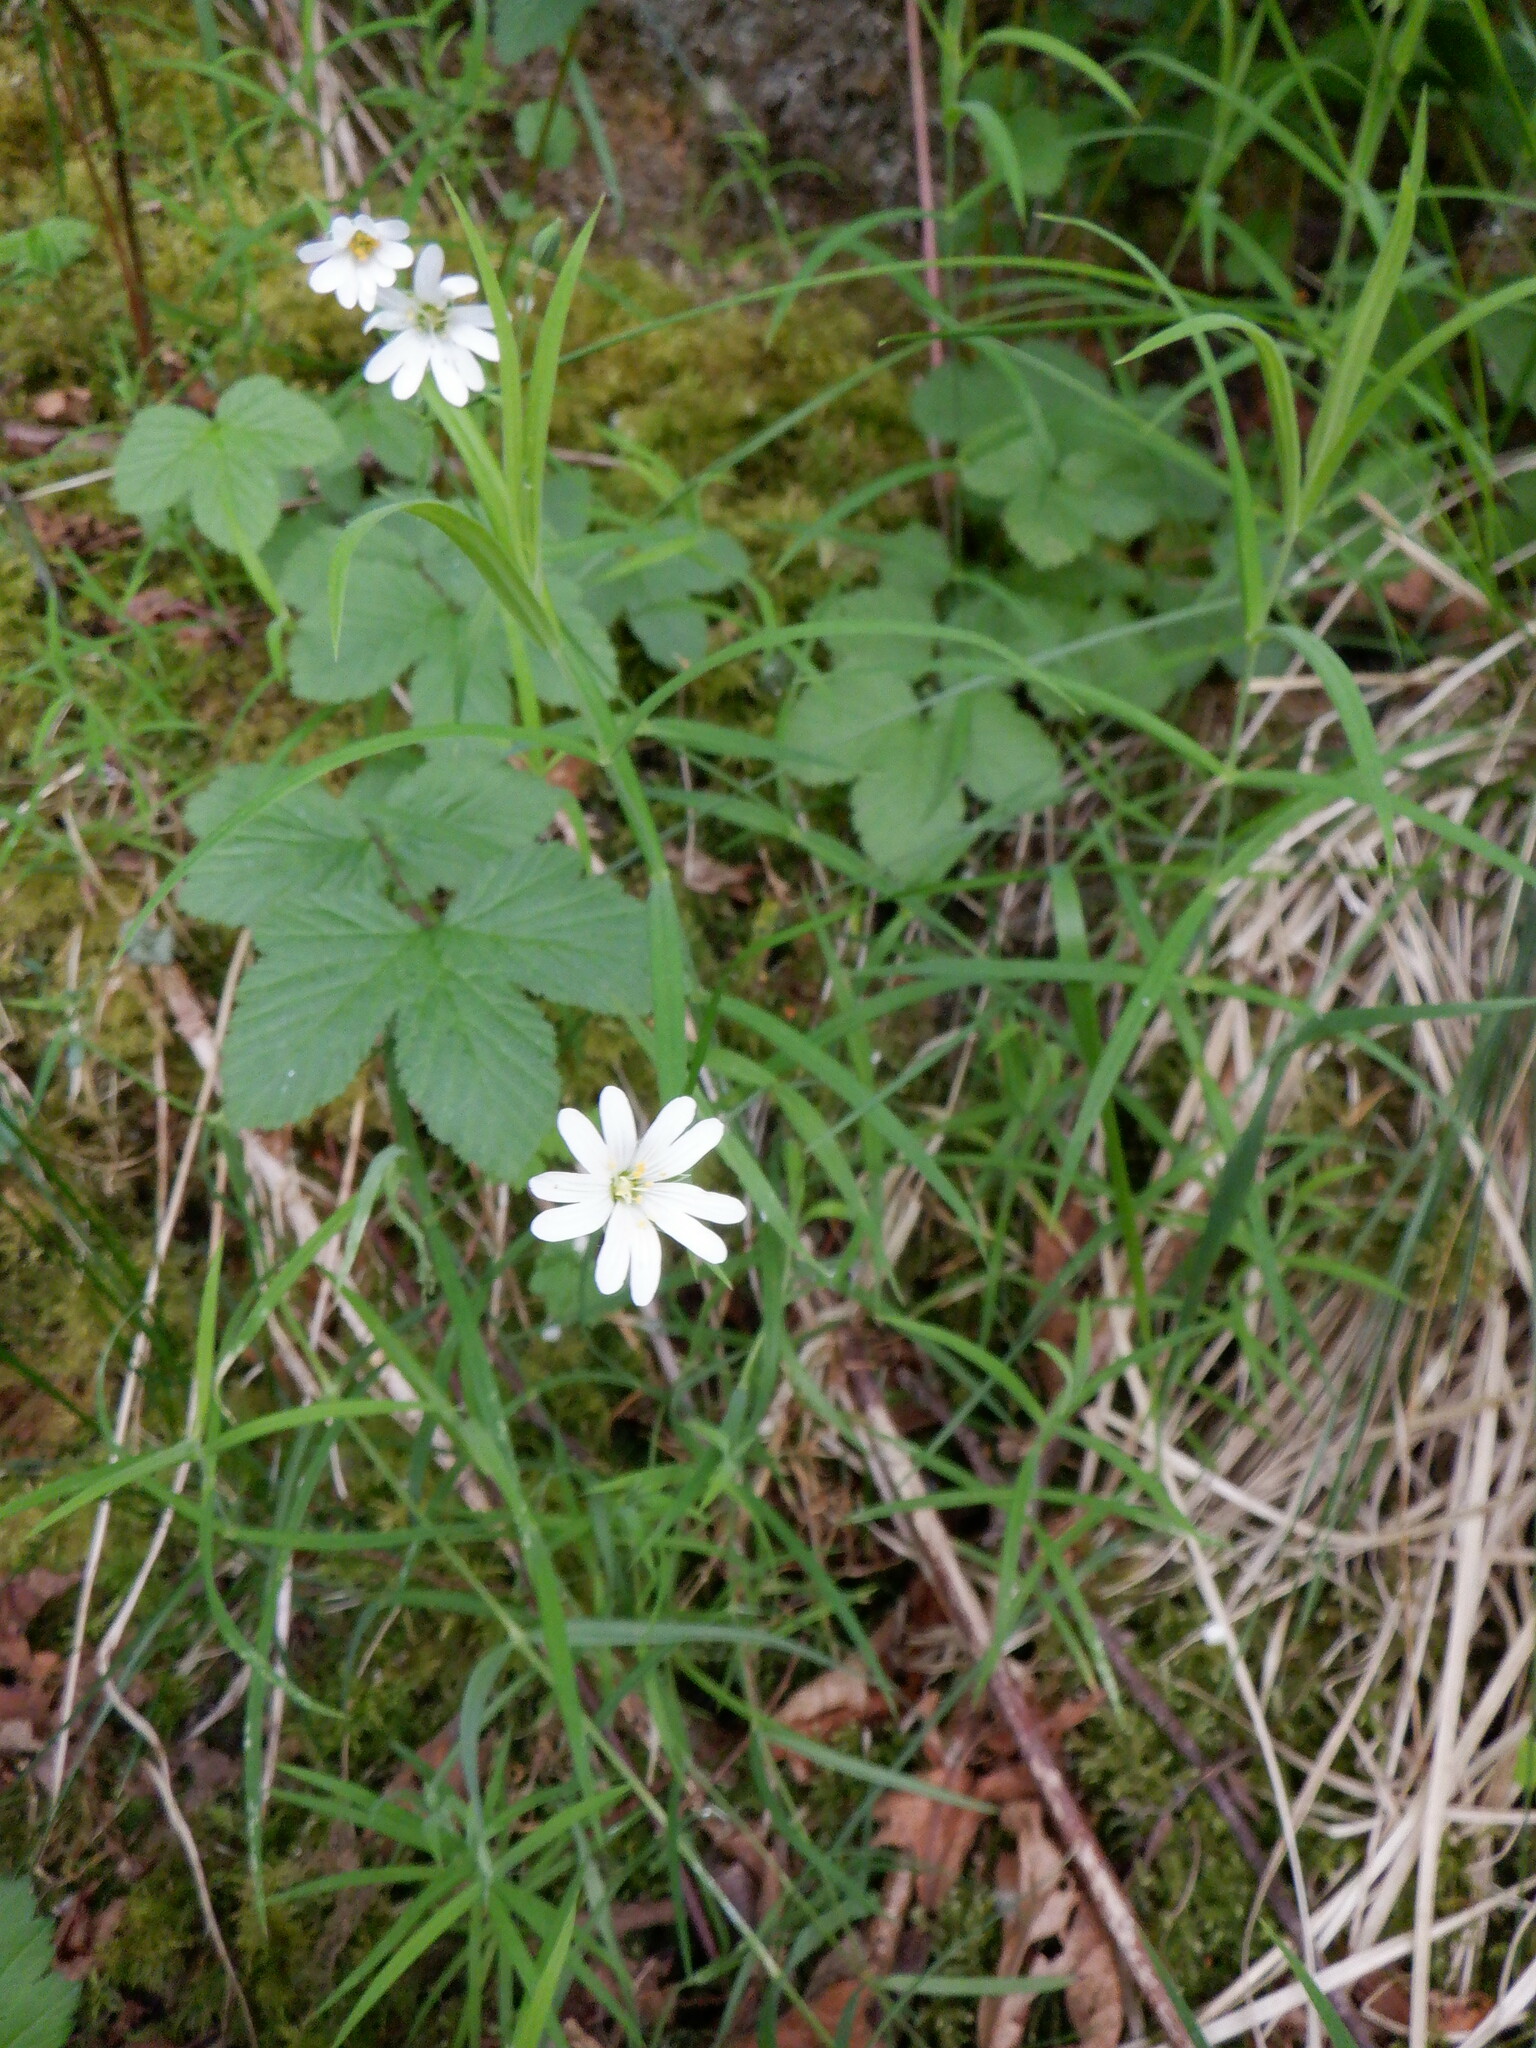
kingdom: Plantae
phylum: Tracheophyta
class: Magnoliopsida
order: Caryophyllales
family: Caryophyllaceae
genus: Rabelera
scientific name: Rabelera holostea
